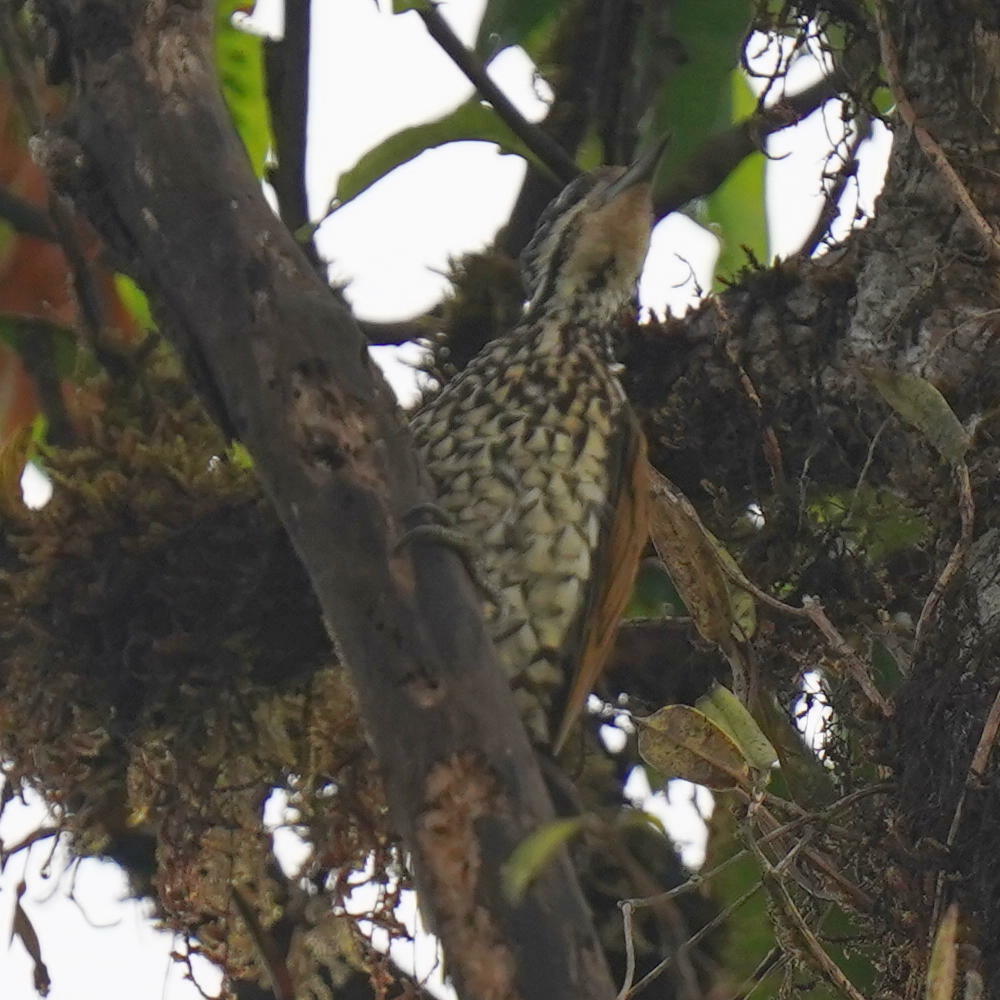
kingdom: Animalia
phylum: Chordata
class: Aves
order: Piciformes
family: Picidae
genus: Dinopium
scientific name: Dinopium javanense
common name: Common flameback
